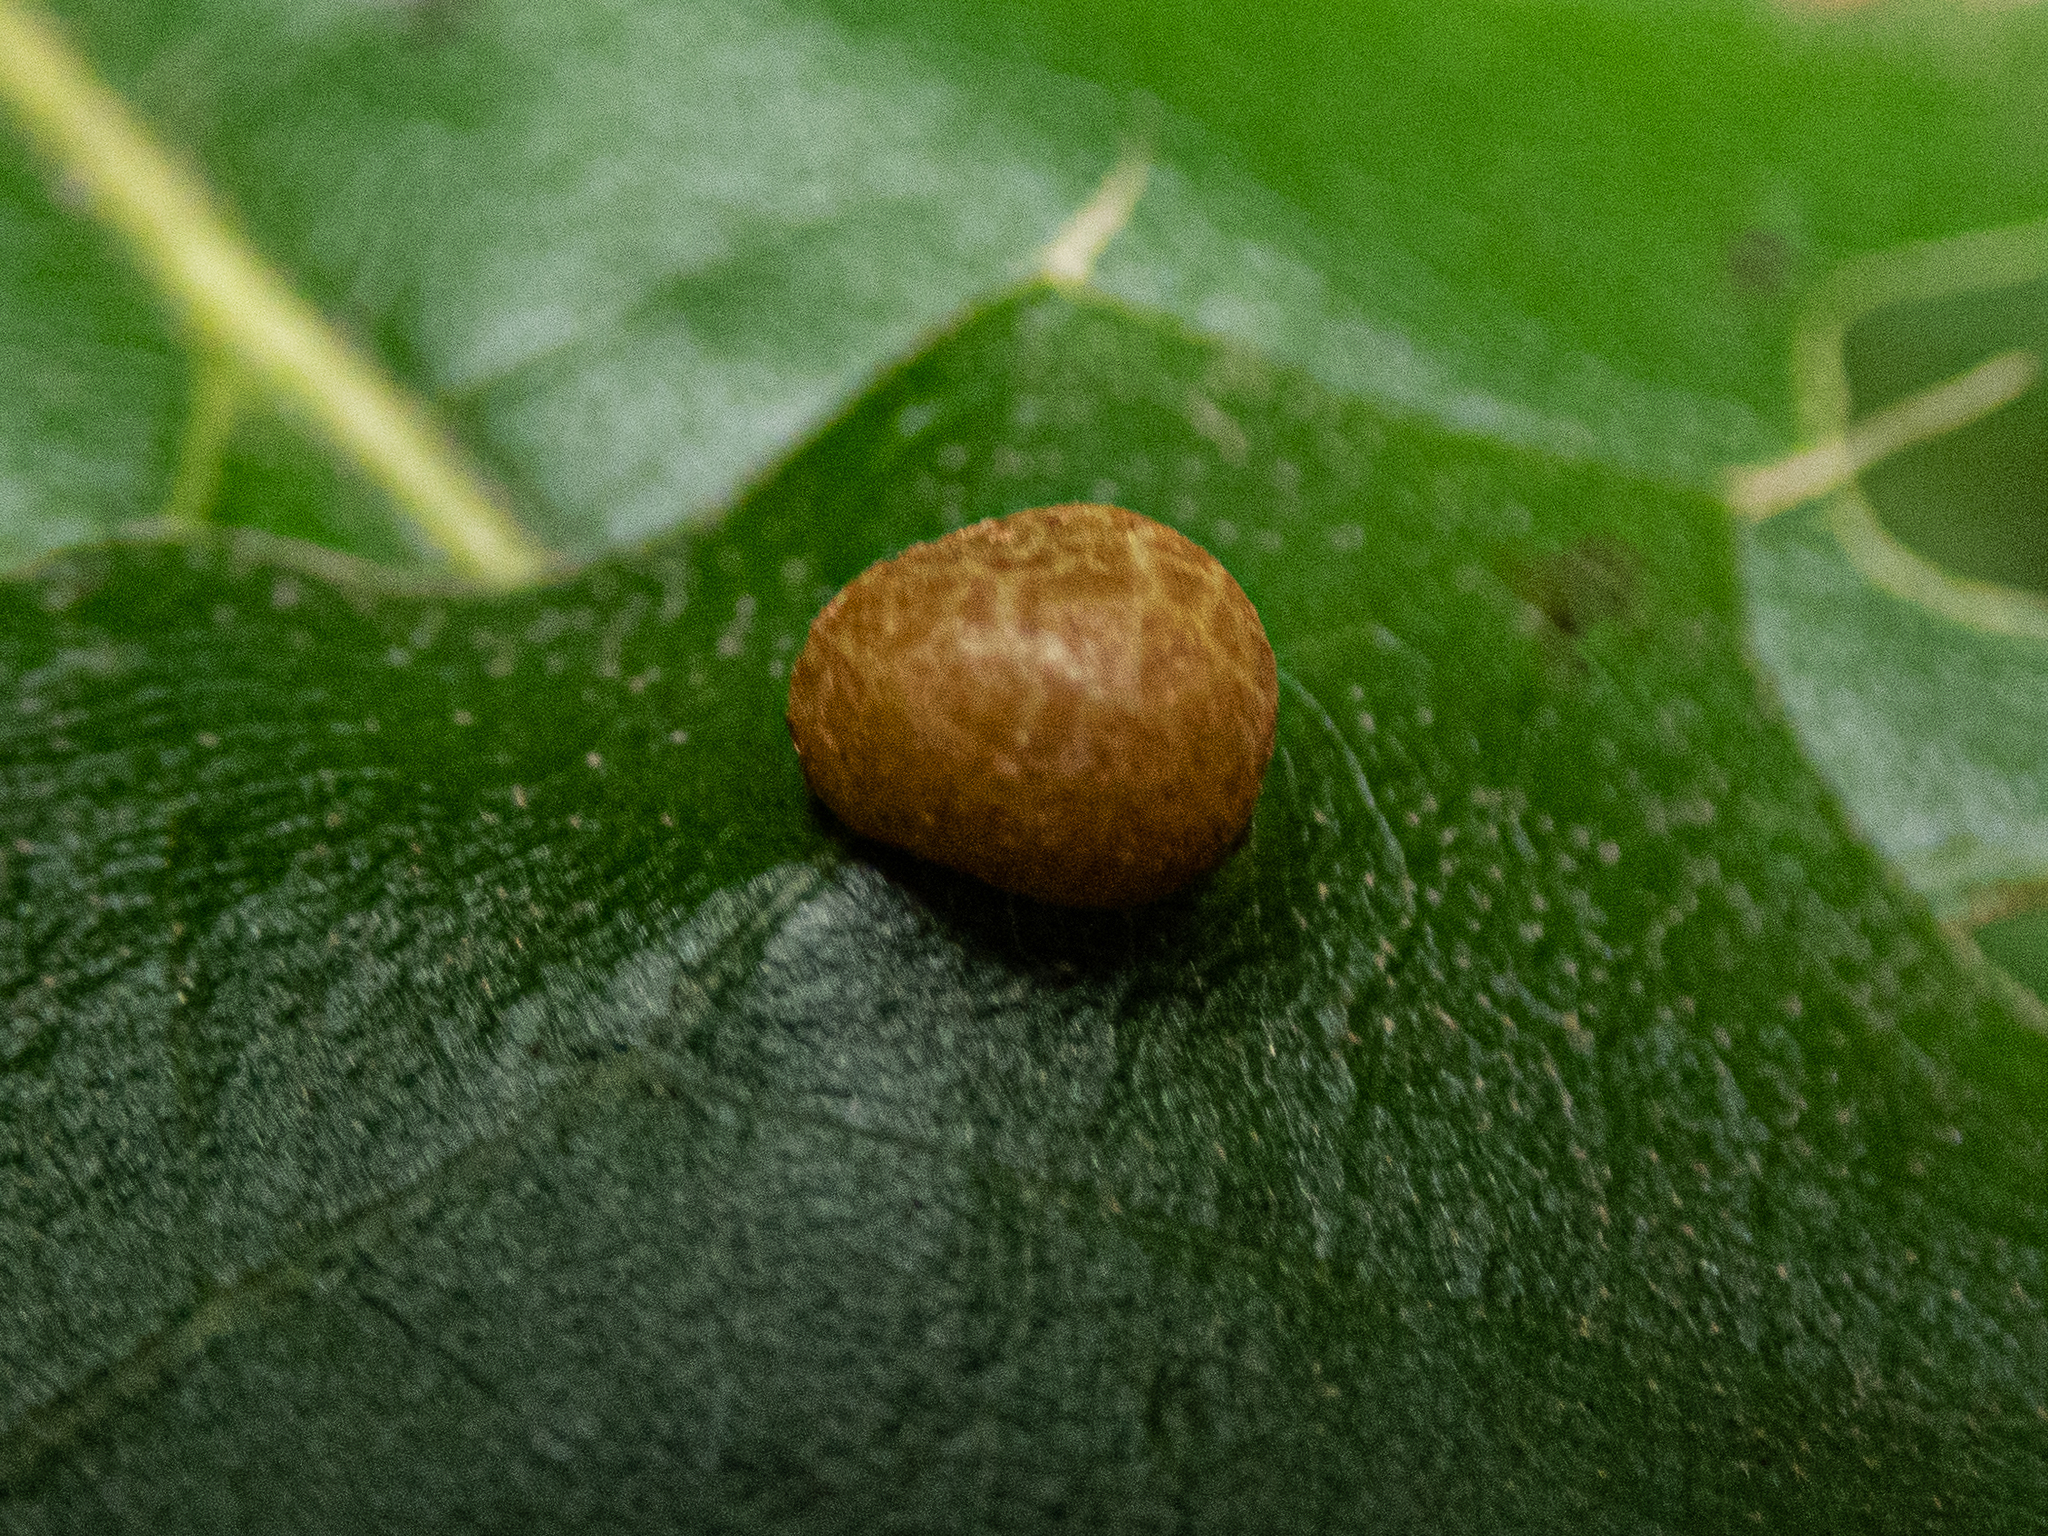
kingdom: Animalia
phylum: Arthropoda
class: Insecta
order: Diptera
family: Cecidomyiidae
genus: Polystepha
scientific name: Polystepha pilulae
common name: Oak leaf gall midge
